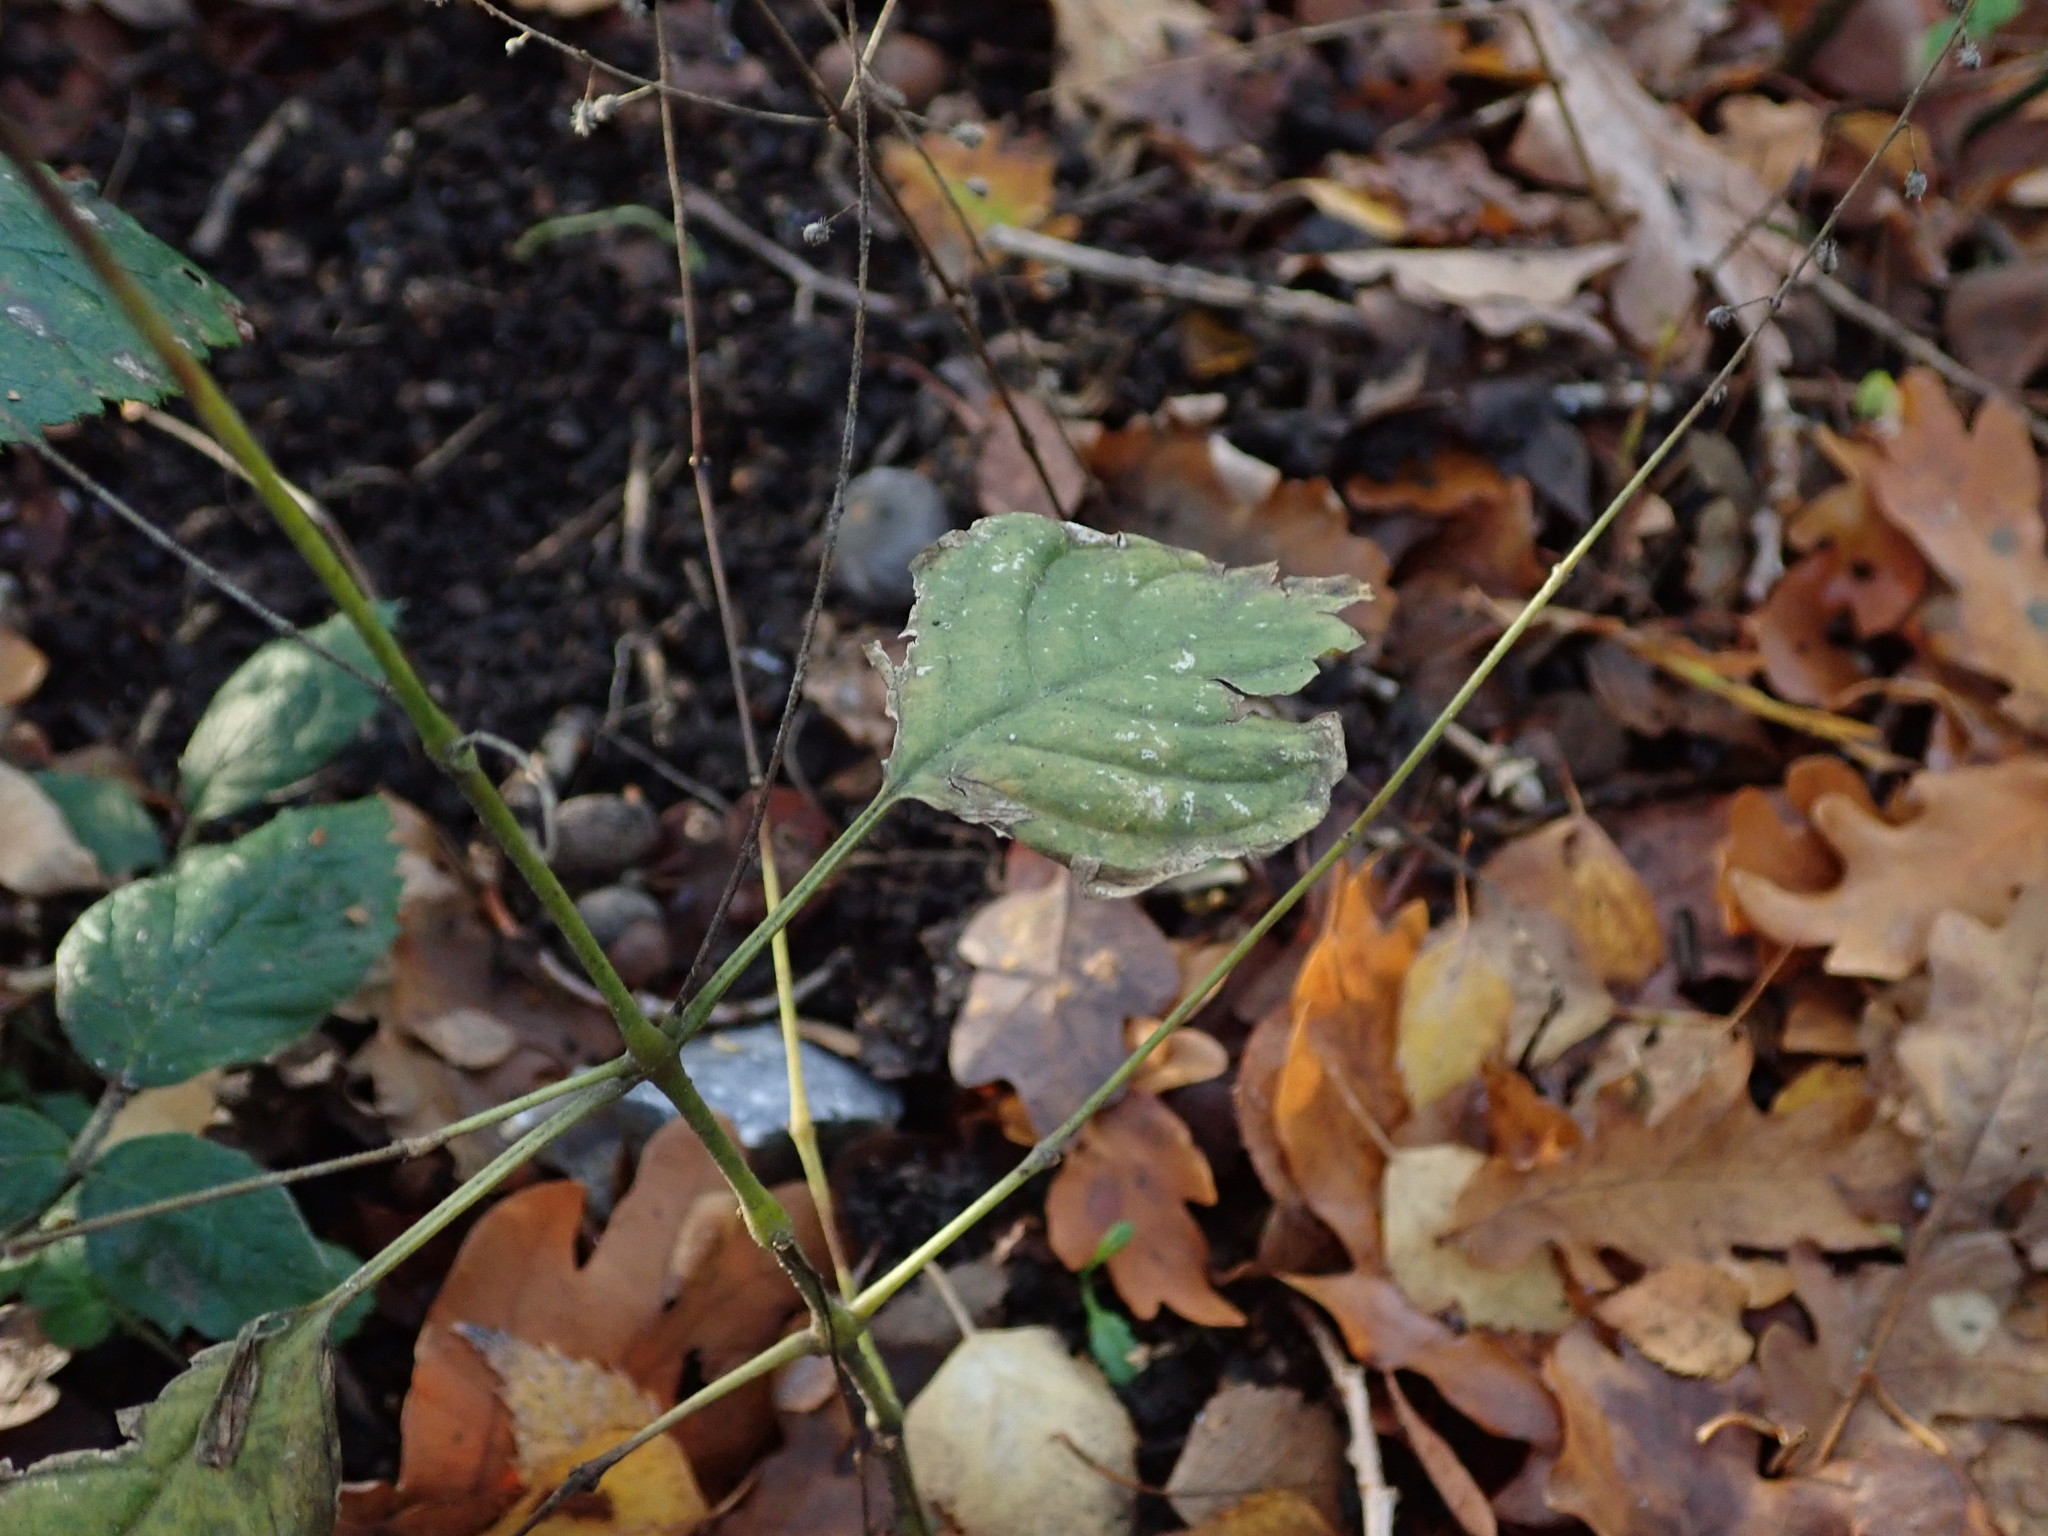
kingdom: Plantae
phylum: Tracheophyta
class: Magnoliopsida
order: Myrtales
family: Onagraceae
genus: Circaea
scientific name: Circaea lutetiana
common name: Enchanter's-nightshade
